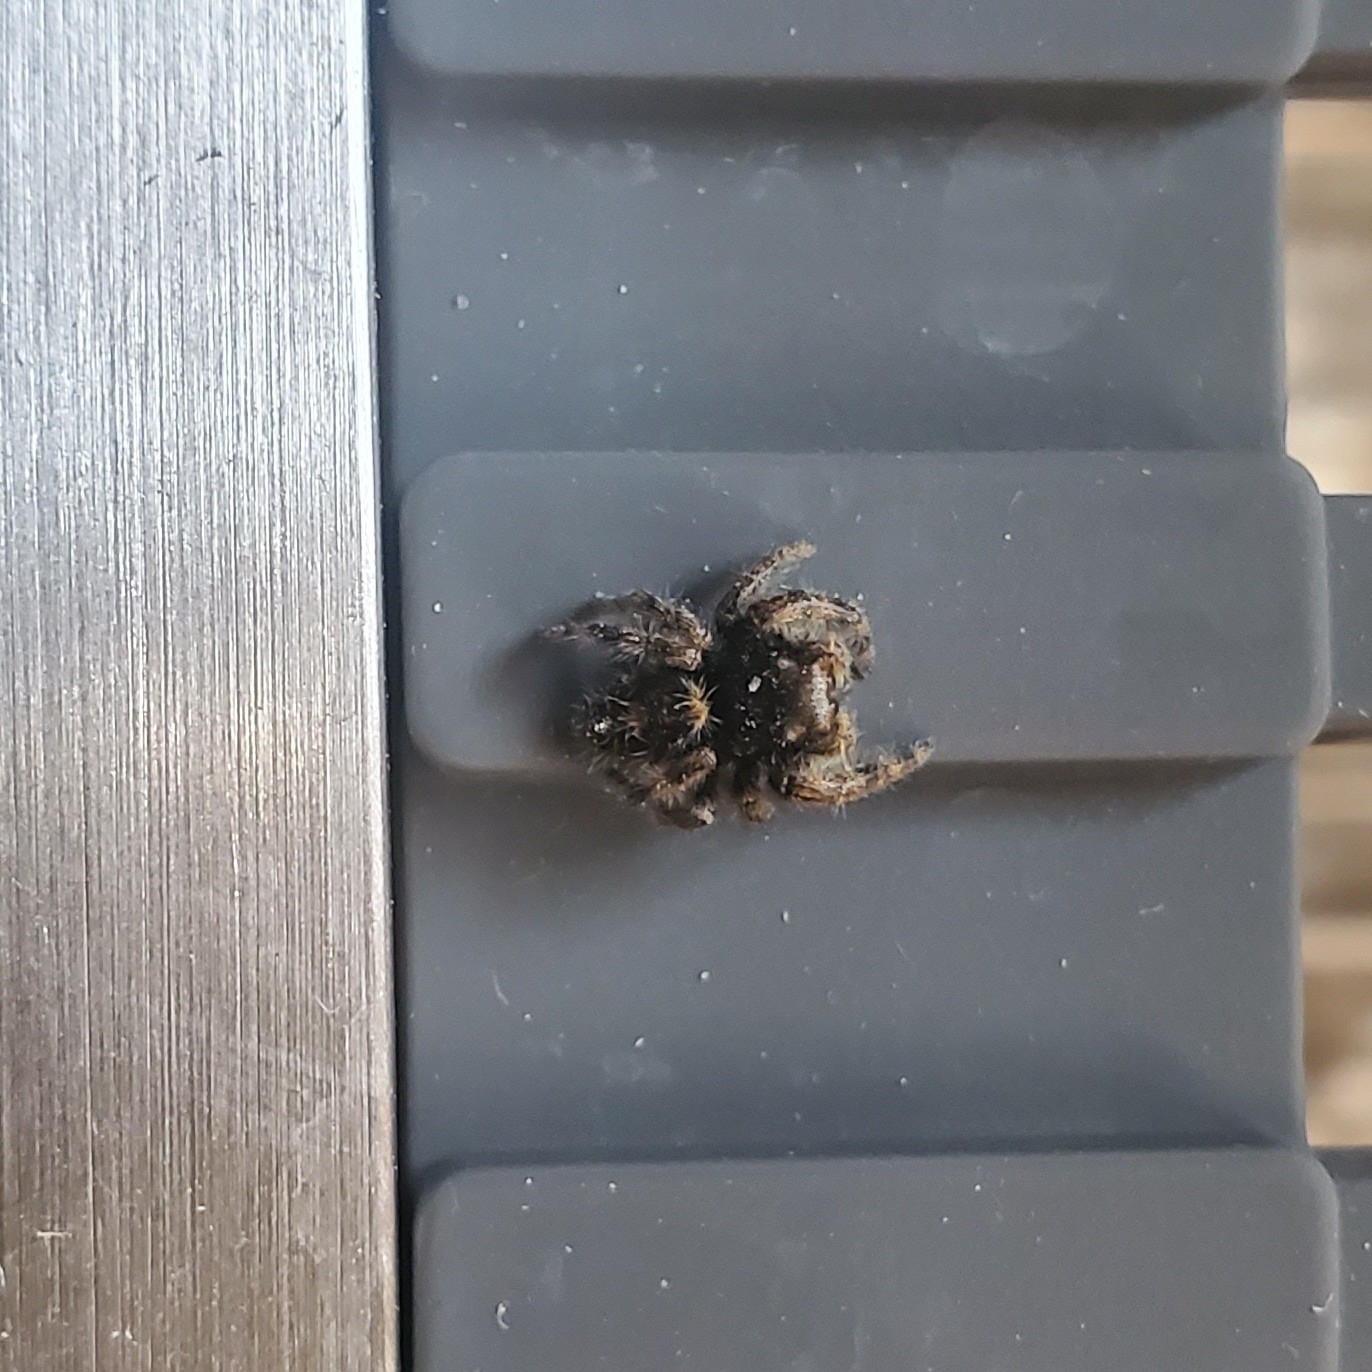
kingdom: Animalia
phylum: Arthropoda
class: Arachnida
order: Araneae
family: Salticidae
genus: Phidippus
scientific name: Phidippus princeps
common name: Grayish jumping spider
